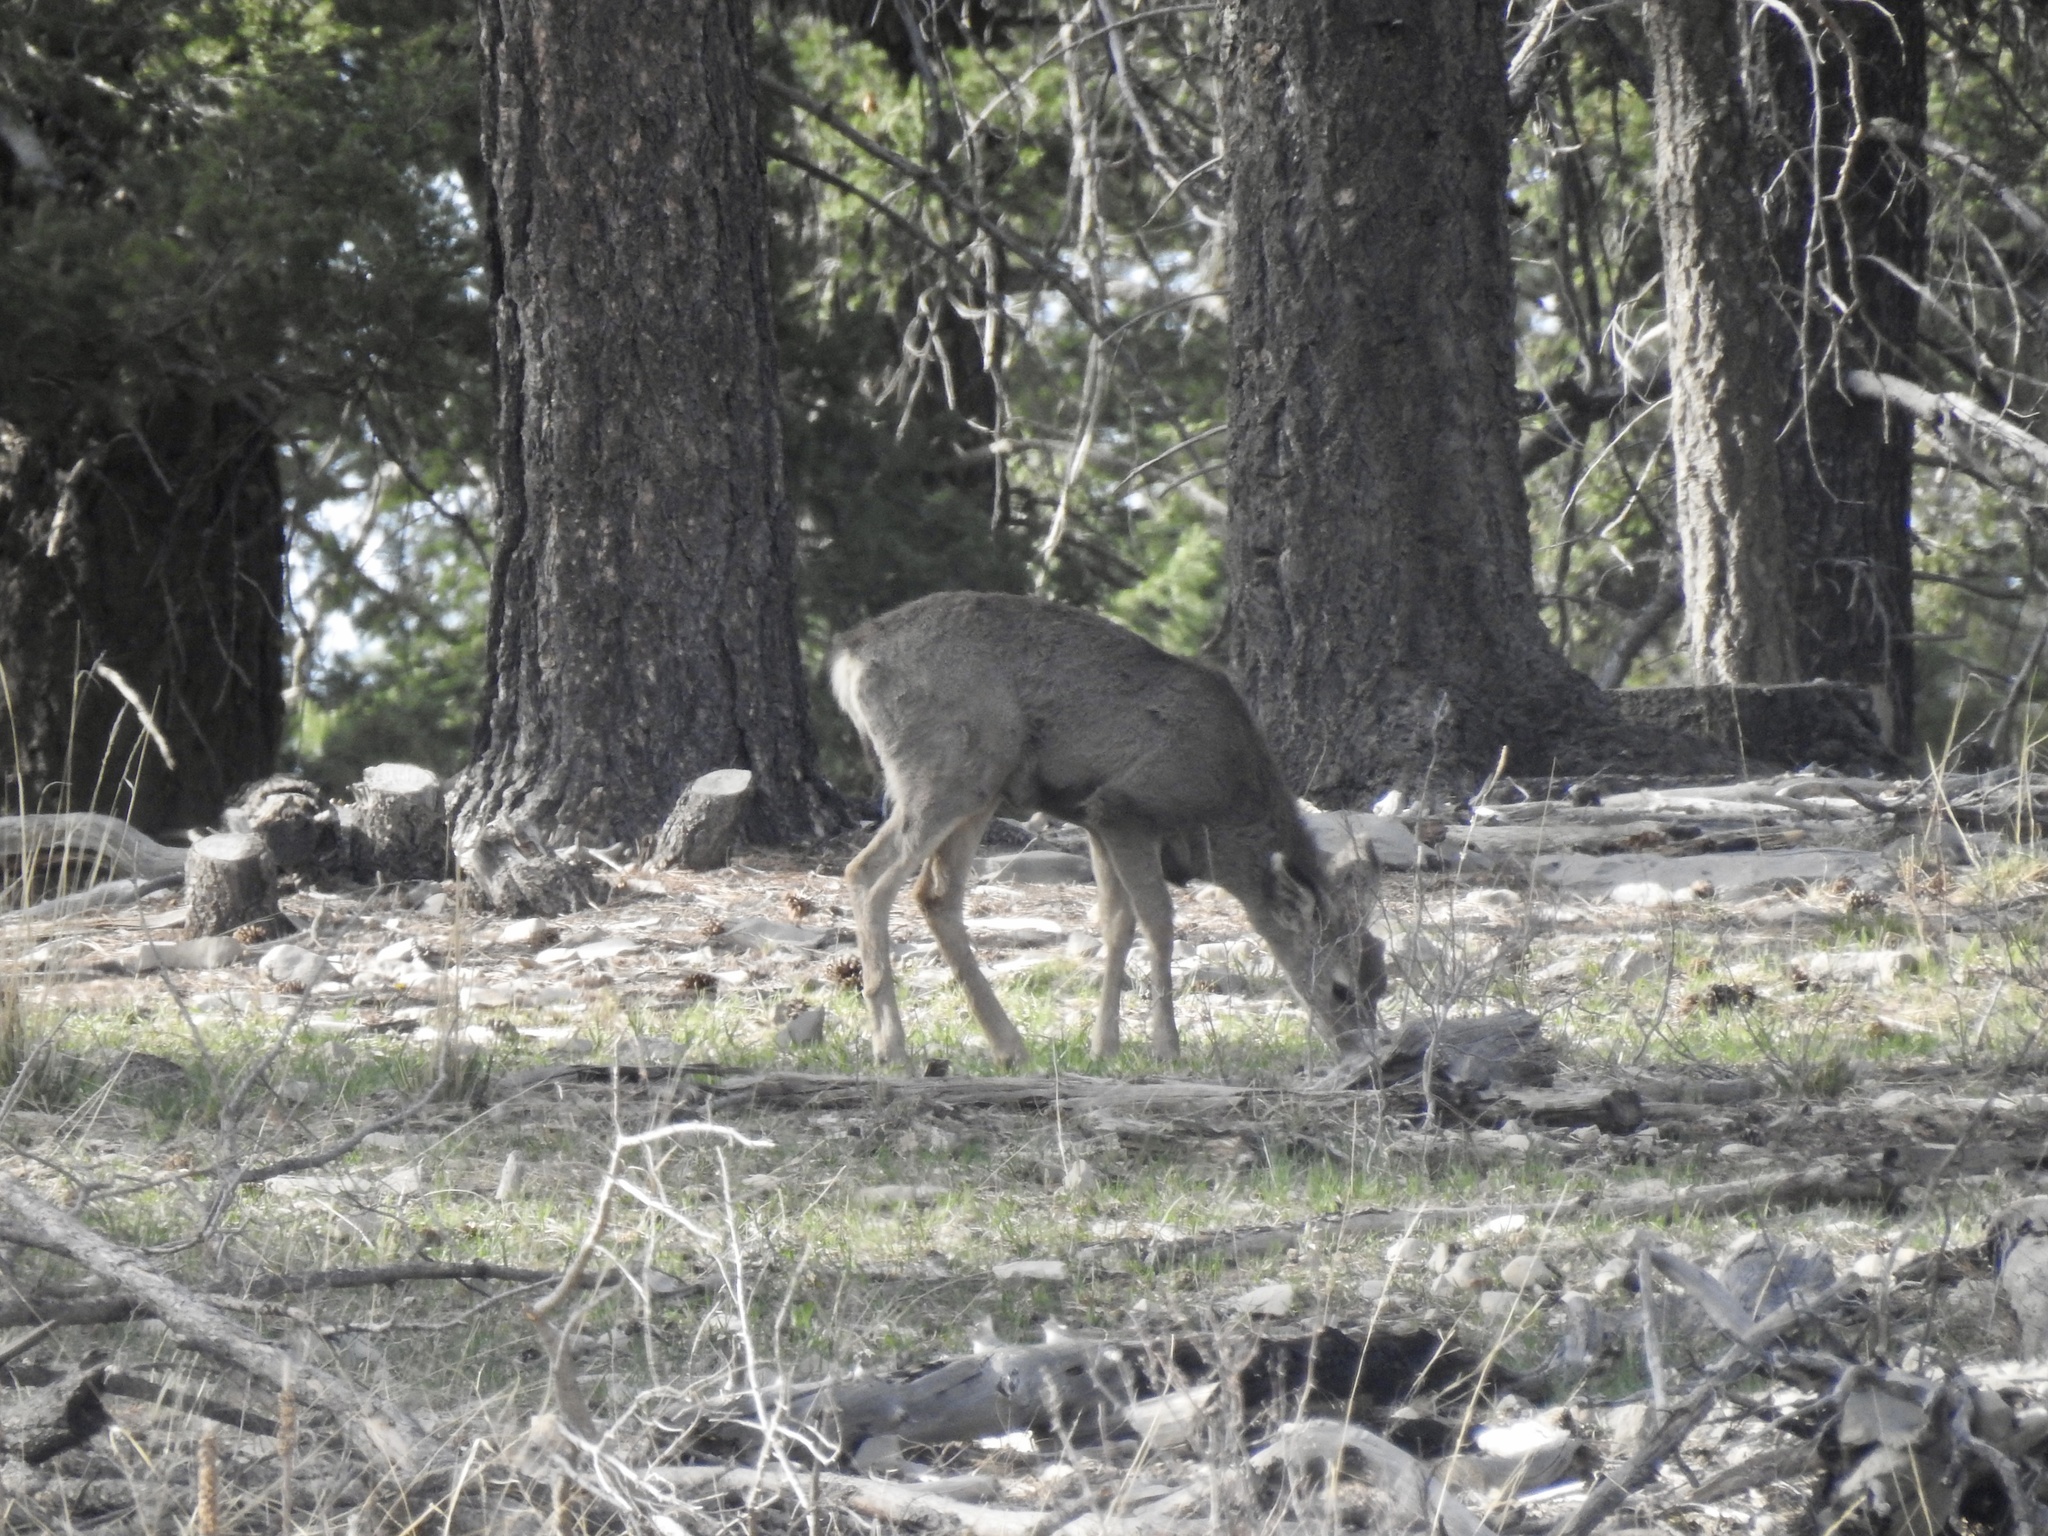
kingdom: Animalia
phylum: Chordata
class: Mammalia
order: Artiodactyla
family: Cervidae
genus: Odocoileus
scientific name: Odocoileus hemionus
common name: Mule deer
